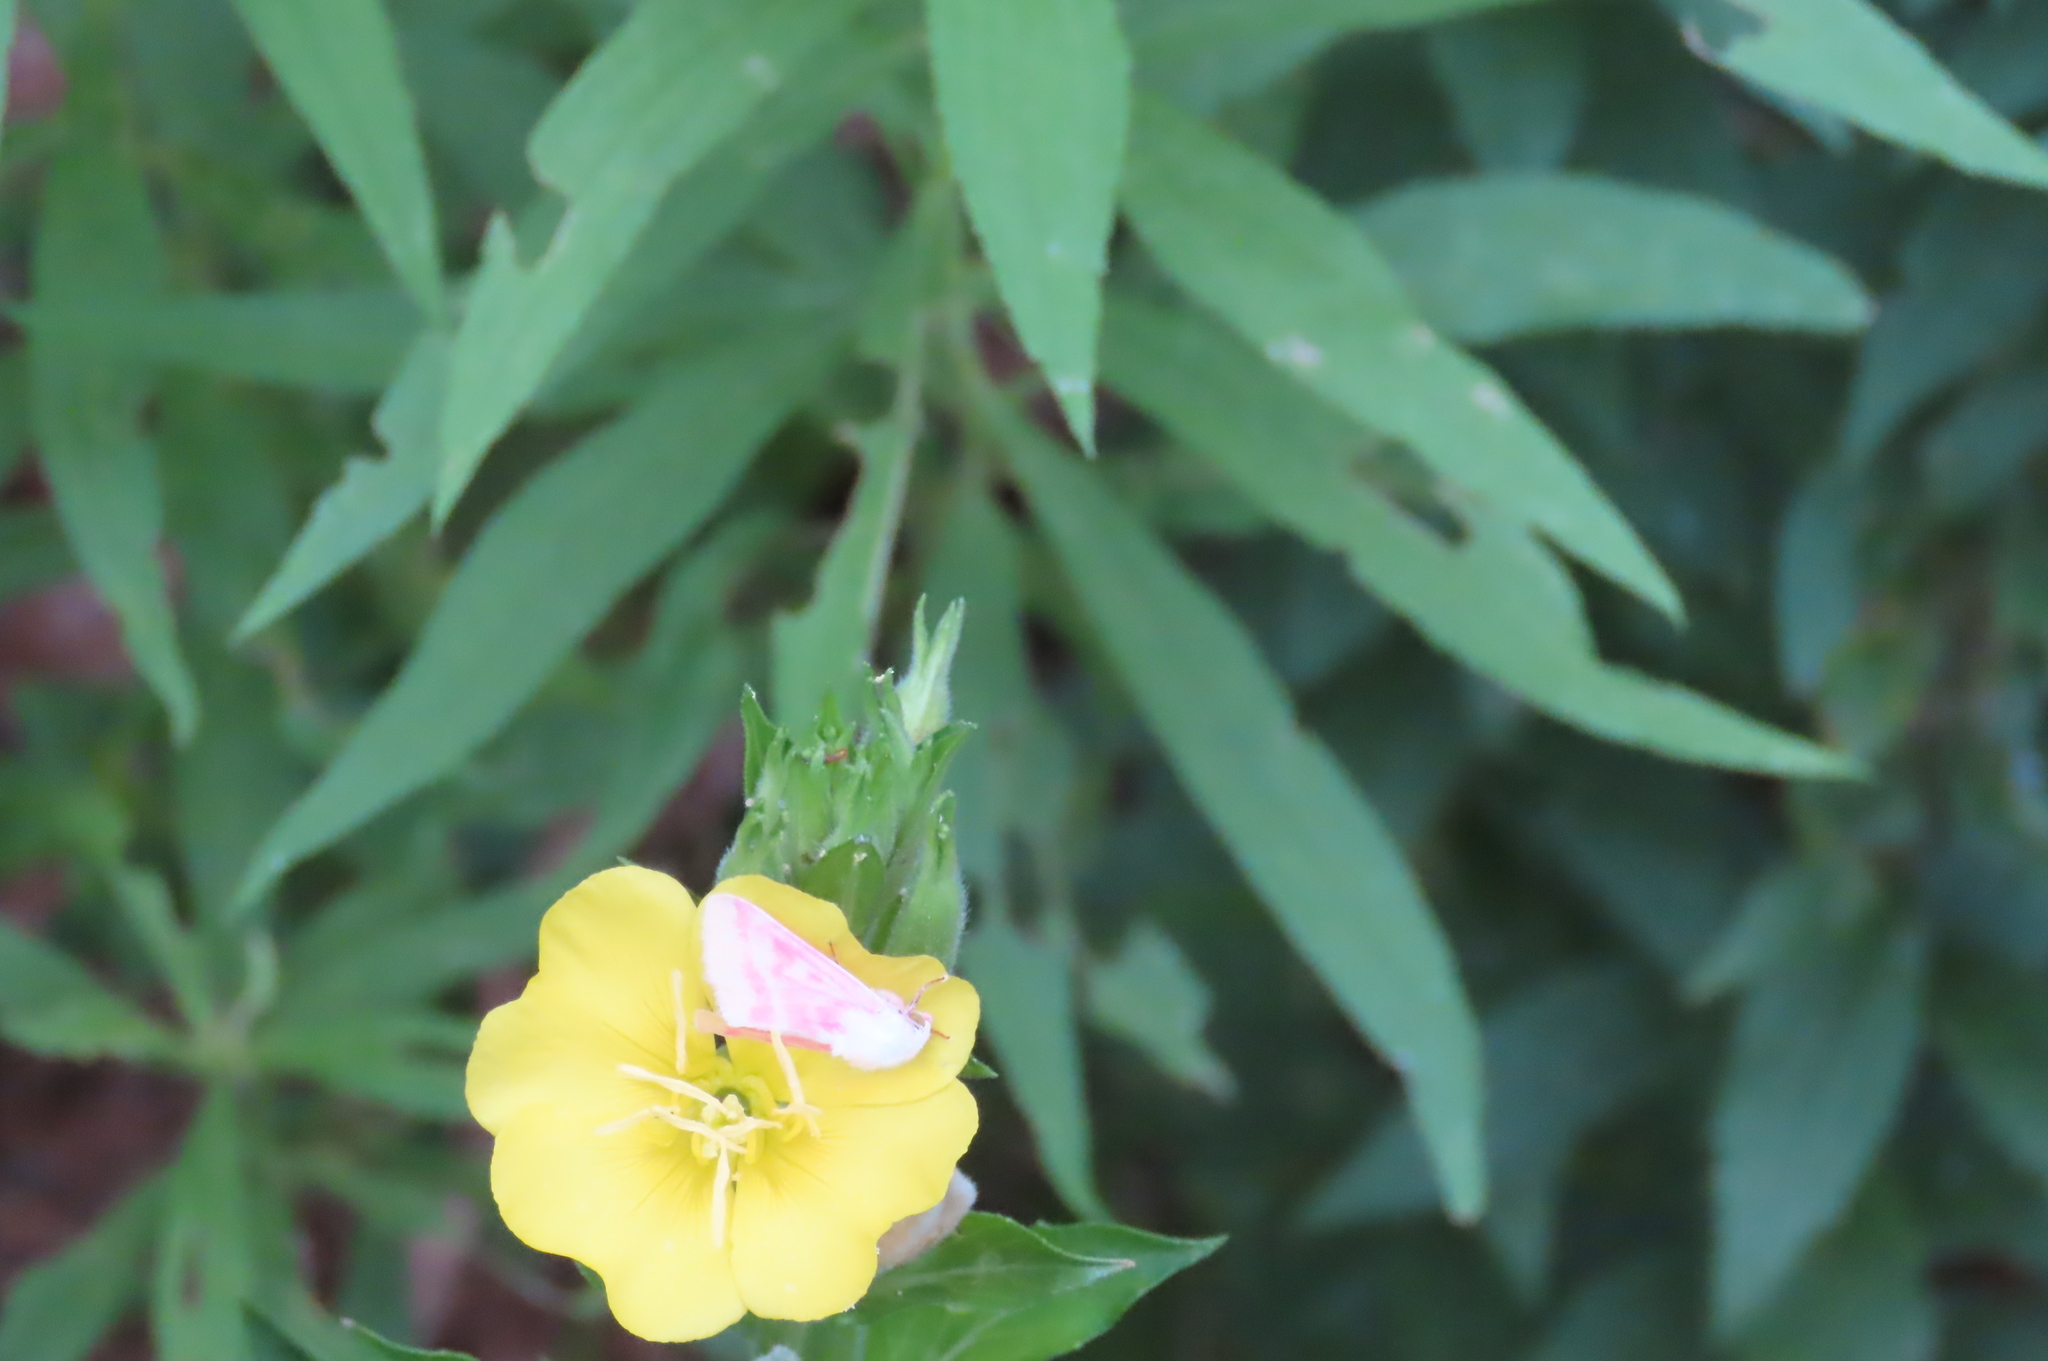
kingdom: Animalia
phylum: Arthropoda
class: Insecta
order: Lepidoptera
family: Noctuidae
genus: Schinia
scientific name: Schinia florida
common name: Primrose moth
